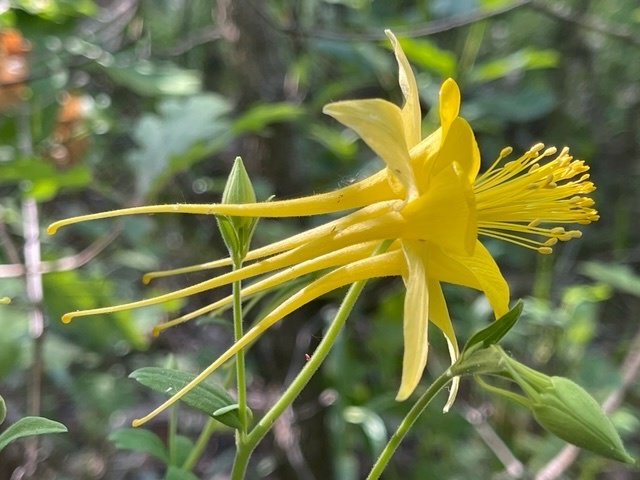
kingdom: Plantae
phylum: Tracheophyta
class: Magnoliopsida
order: Ranunculales
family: Ranunculaceae
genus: Aquilegia
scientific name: Aquilegia chrysantha
